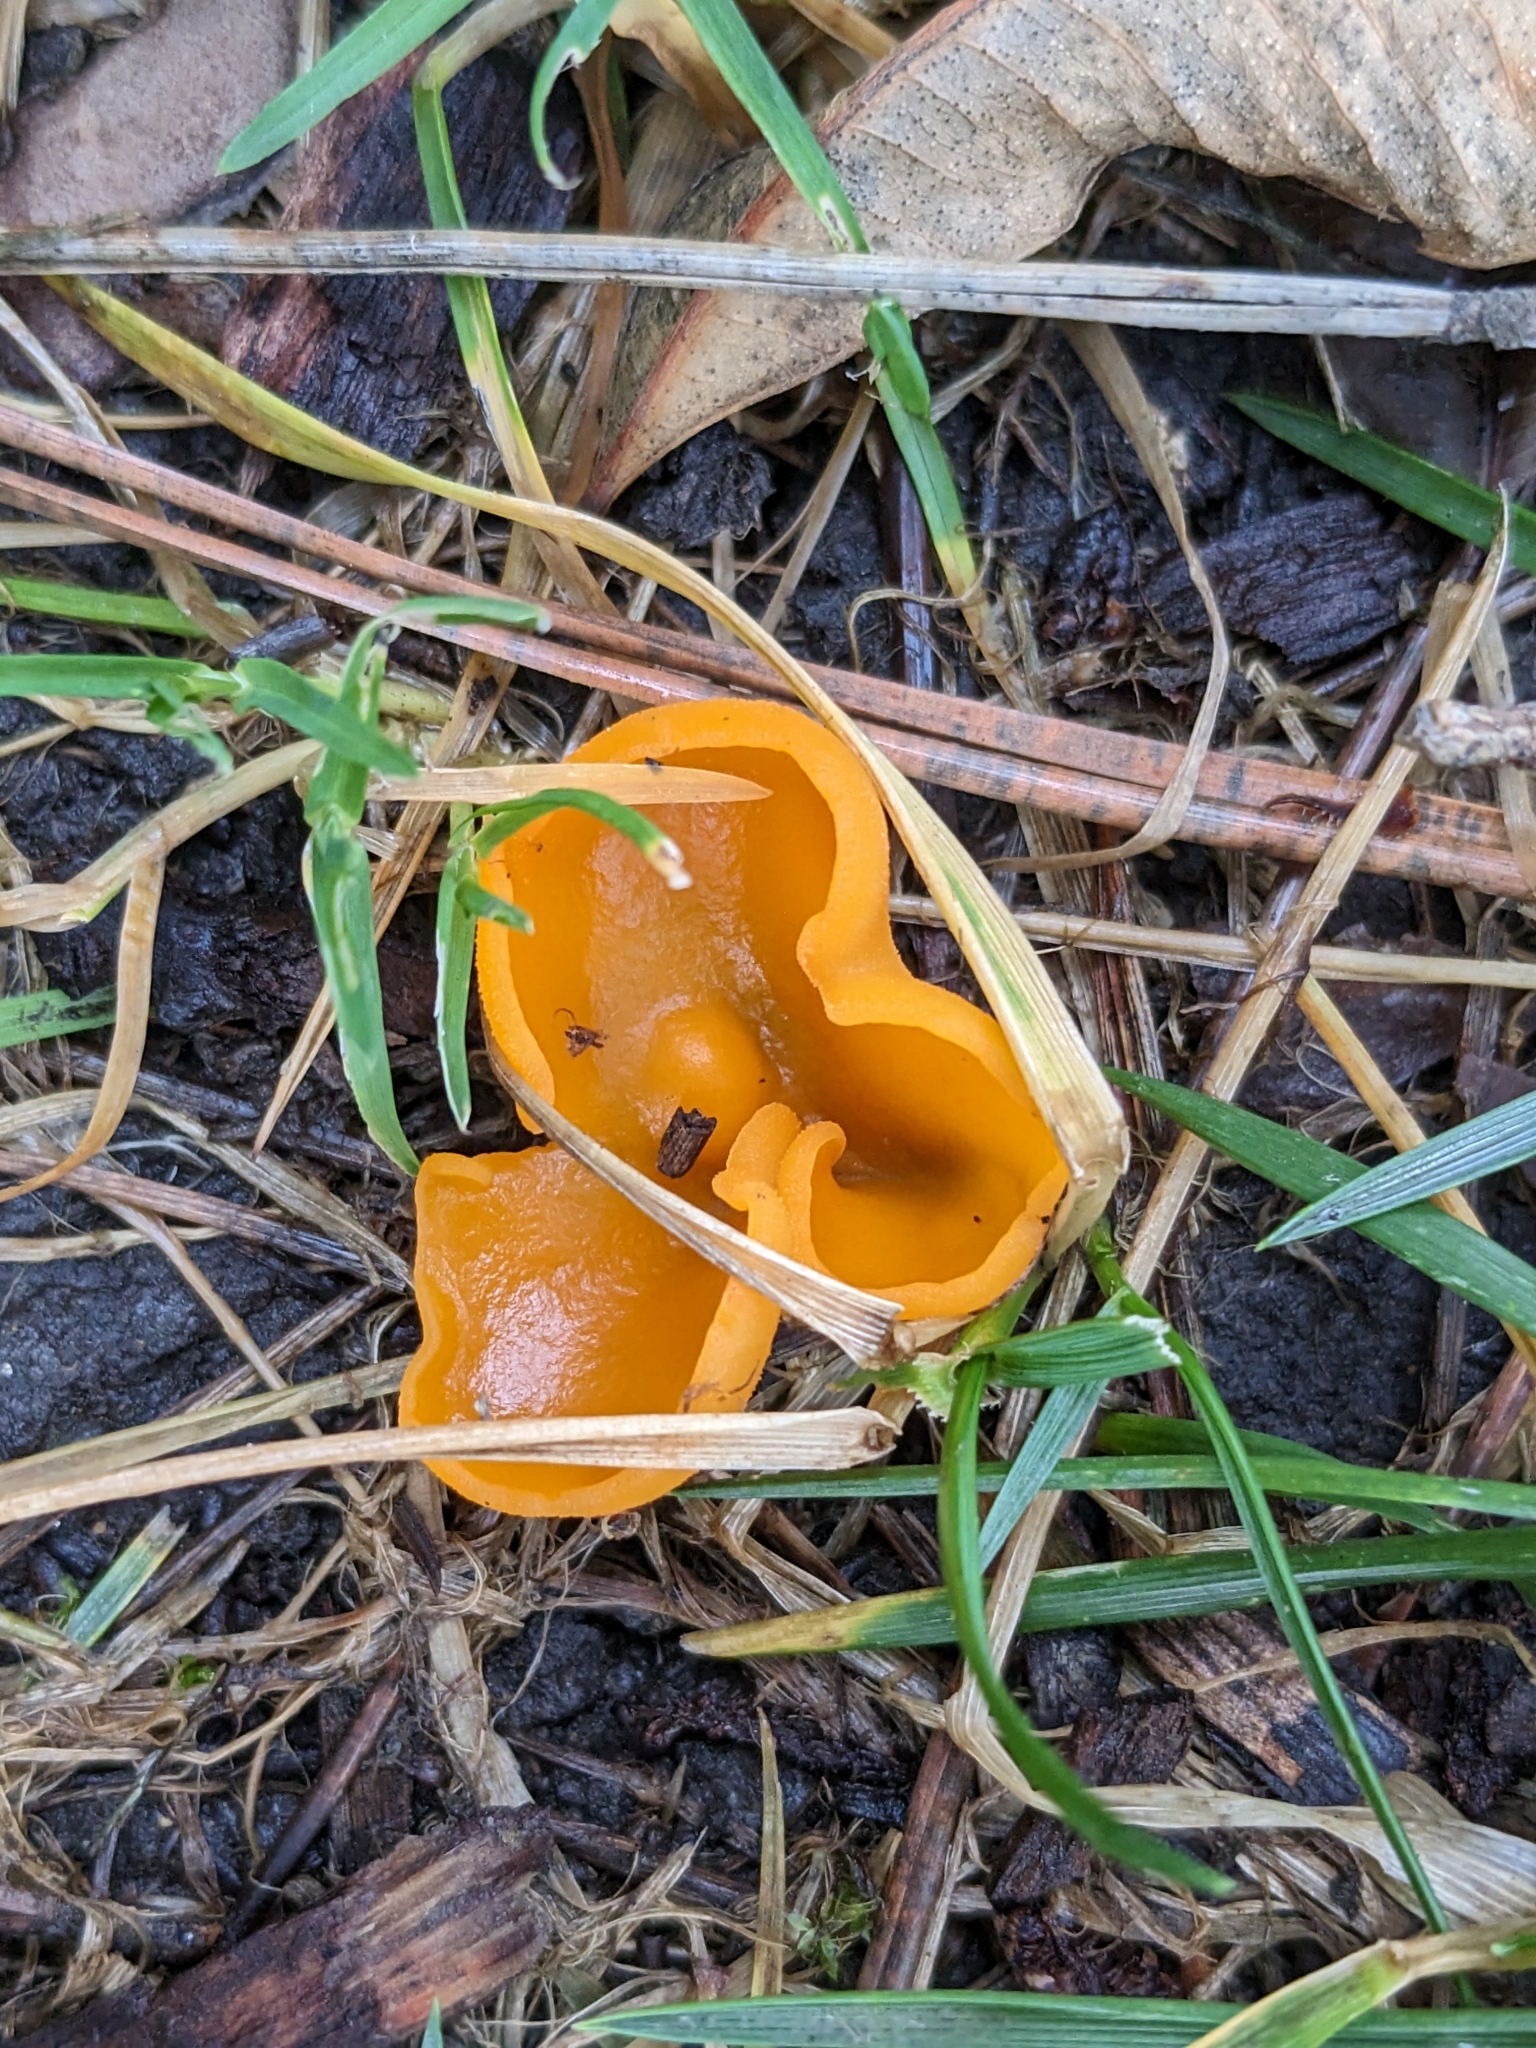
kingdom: Fungi
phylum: Ascomycota
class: Pezizomycetes
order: Pezizales
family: Pyronemataceae
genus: Aleuria
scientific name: Aleuria aurantia
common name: Orange peel fungus
